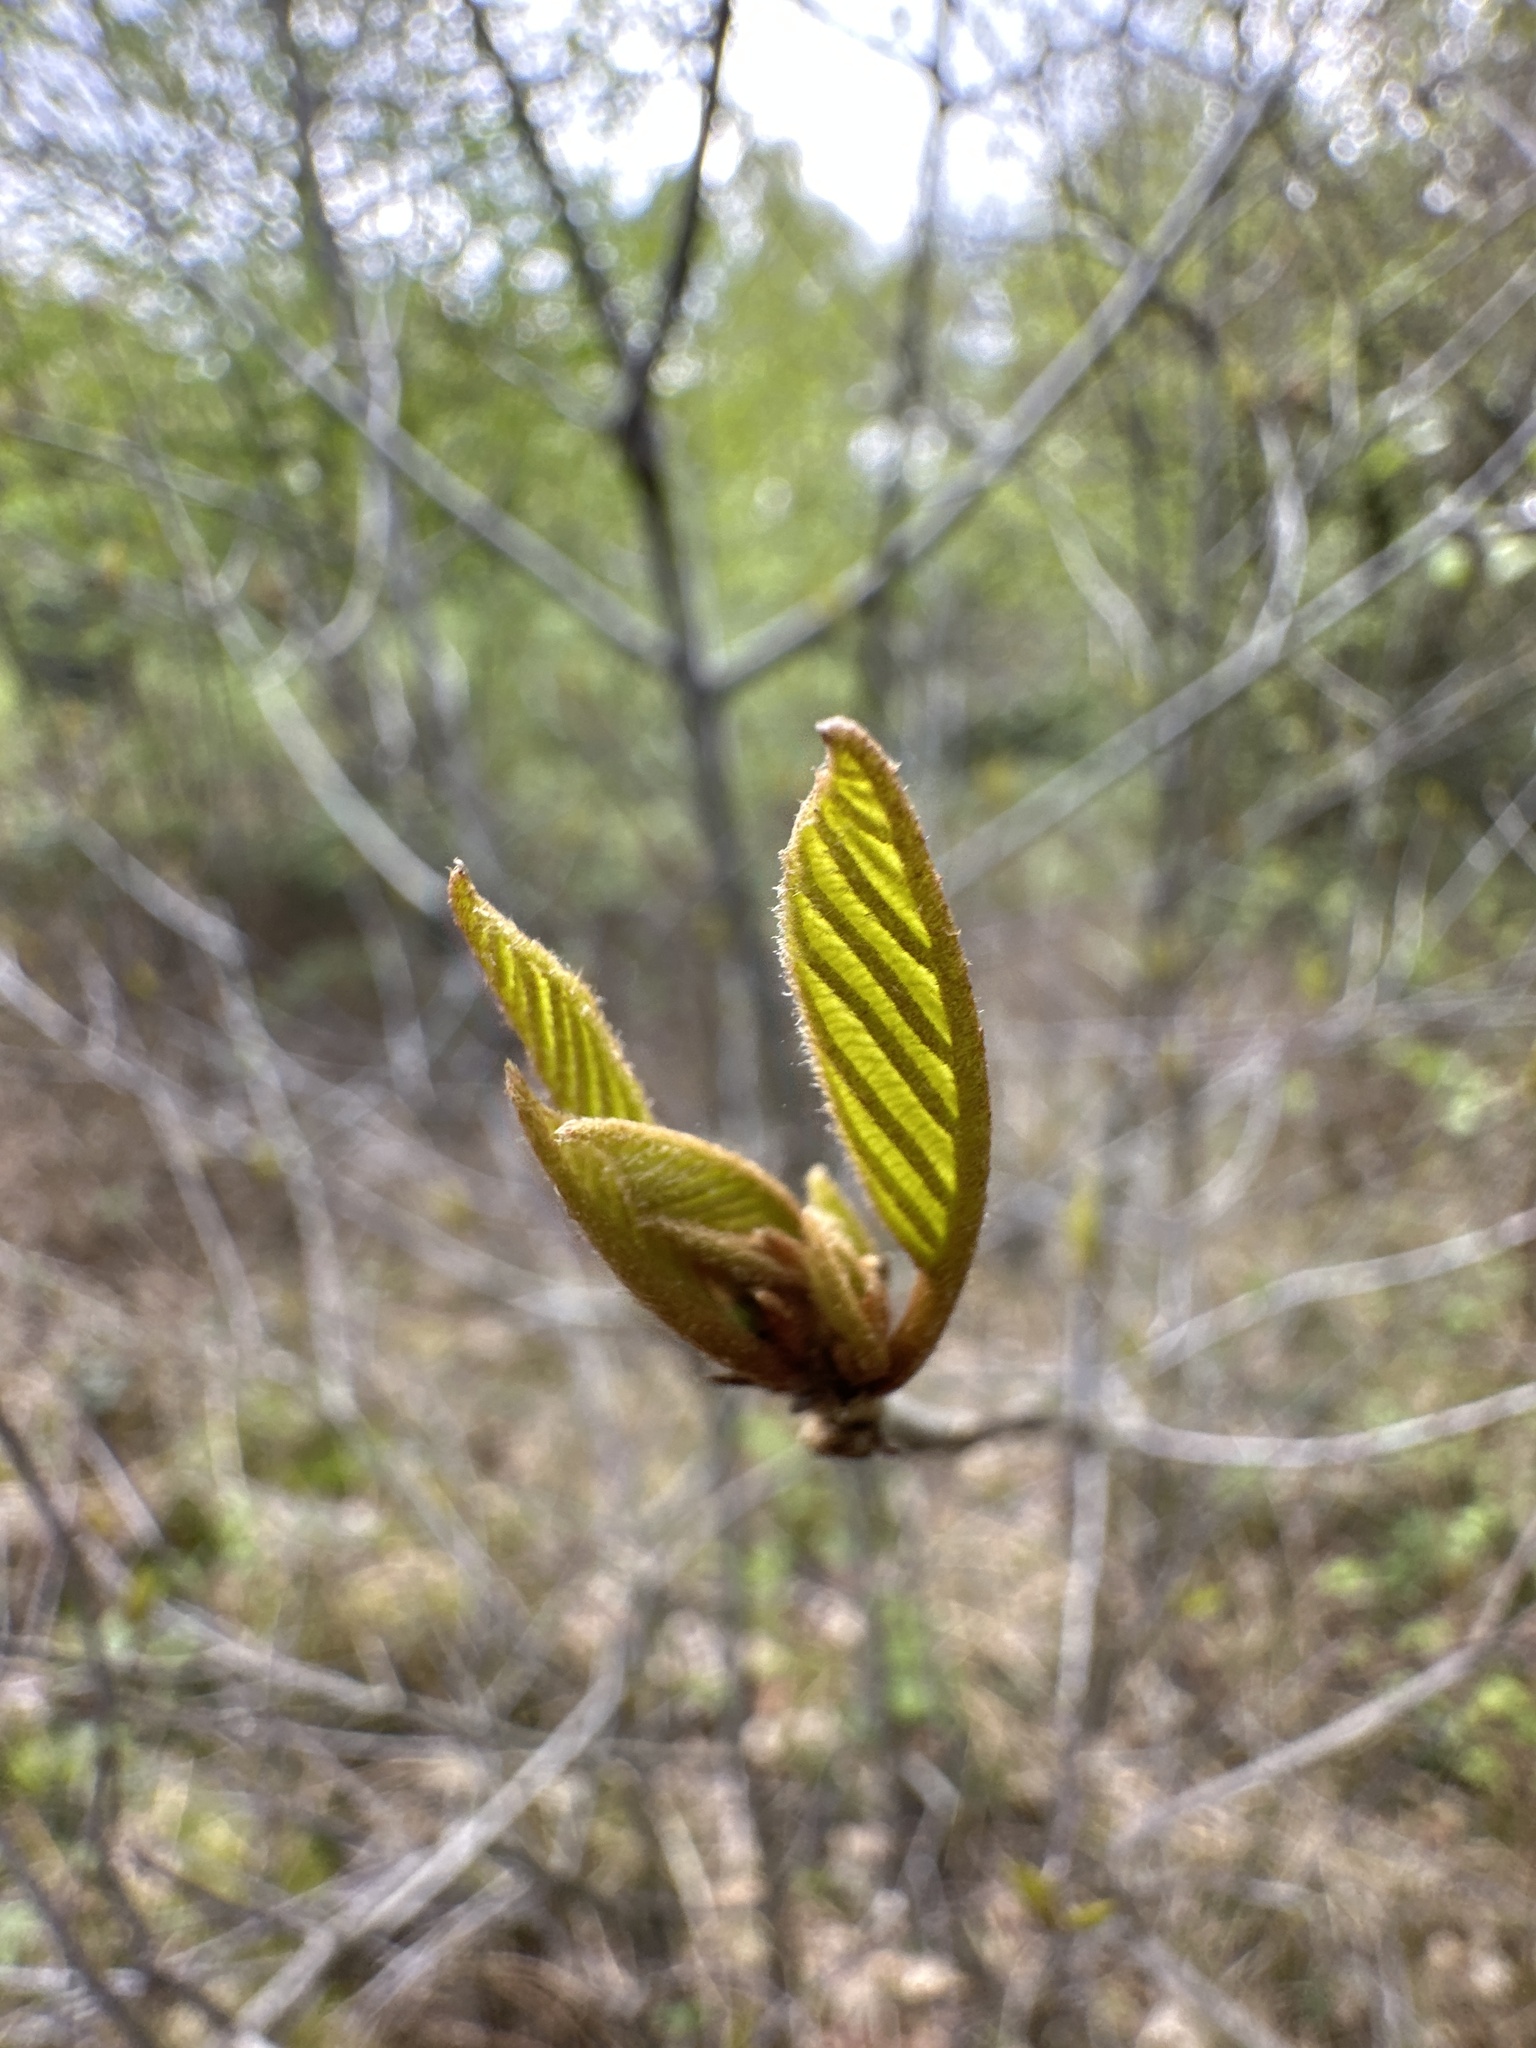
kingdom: Plantae
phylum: Tracheophyta
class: Magnoliopsida
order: Rosales
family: Rhamnaceae
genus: Frangula
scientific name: Frangula alnus
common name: Alder buckthorn
